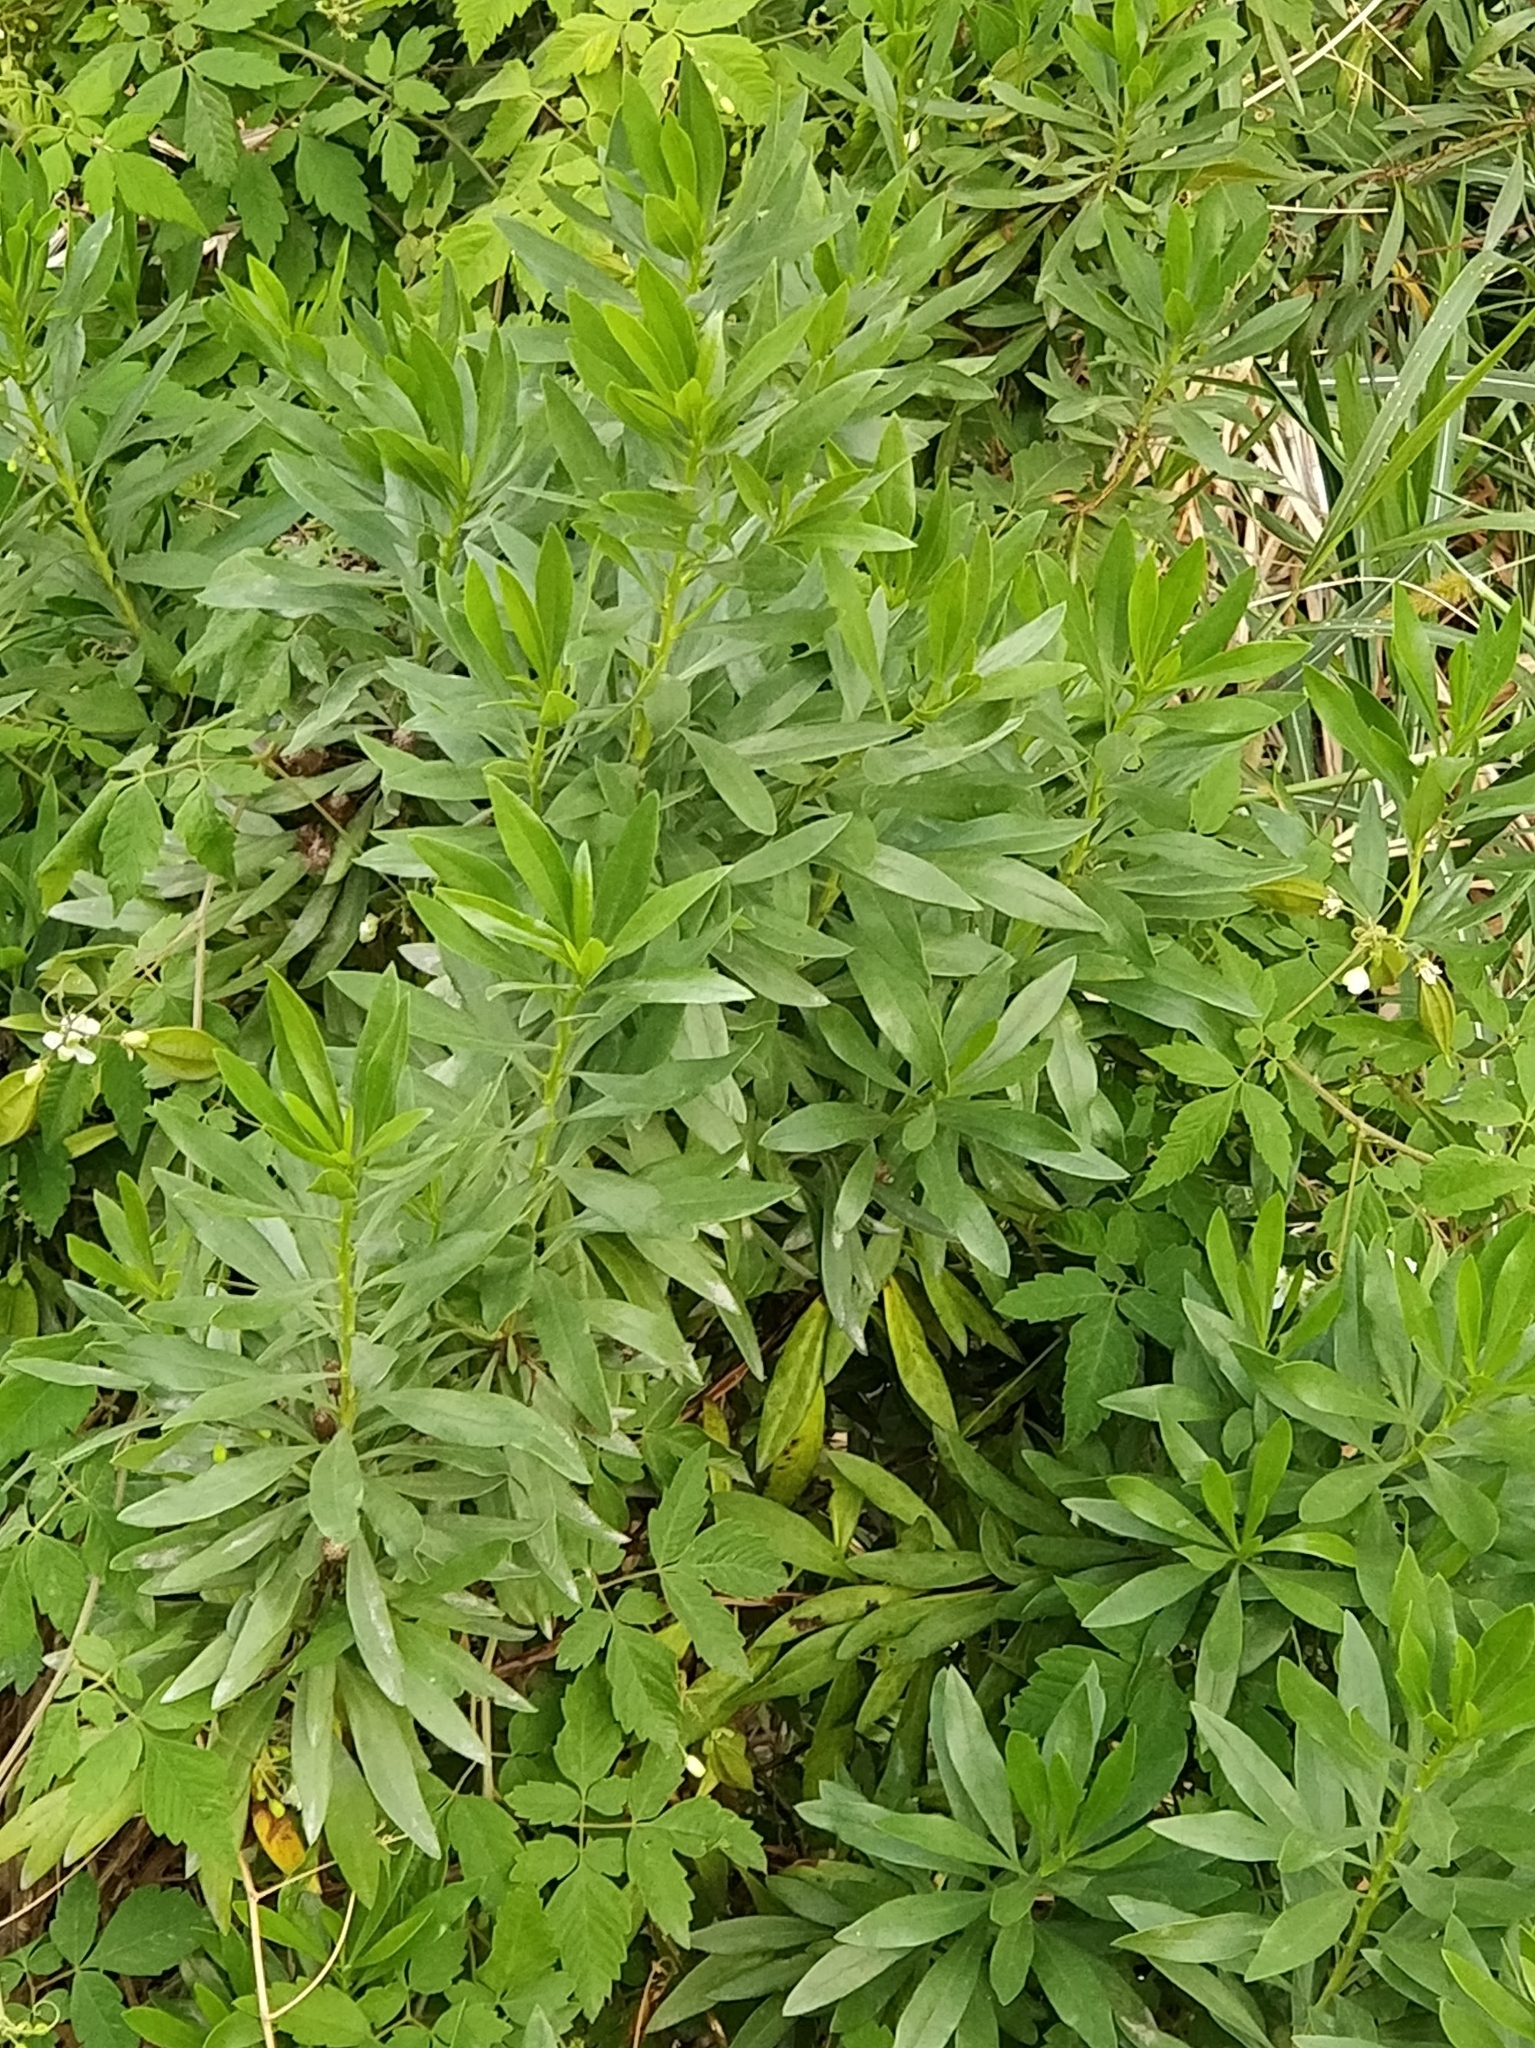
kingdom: Plantae
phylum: Tracheophyta
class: Magnoliopsida
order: Lamiales
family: Plantaginaceae
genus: Globularia
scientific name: Globularia salicina
